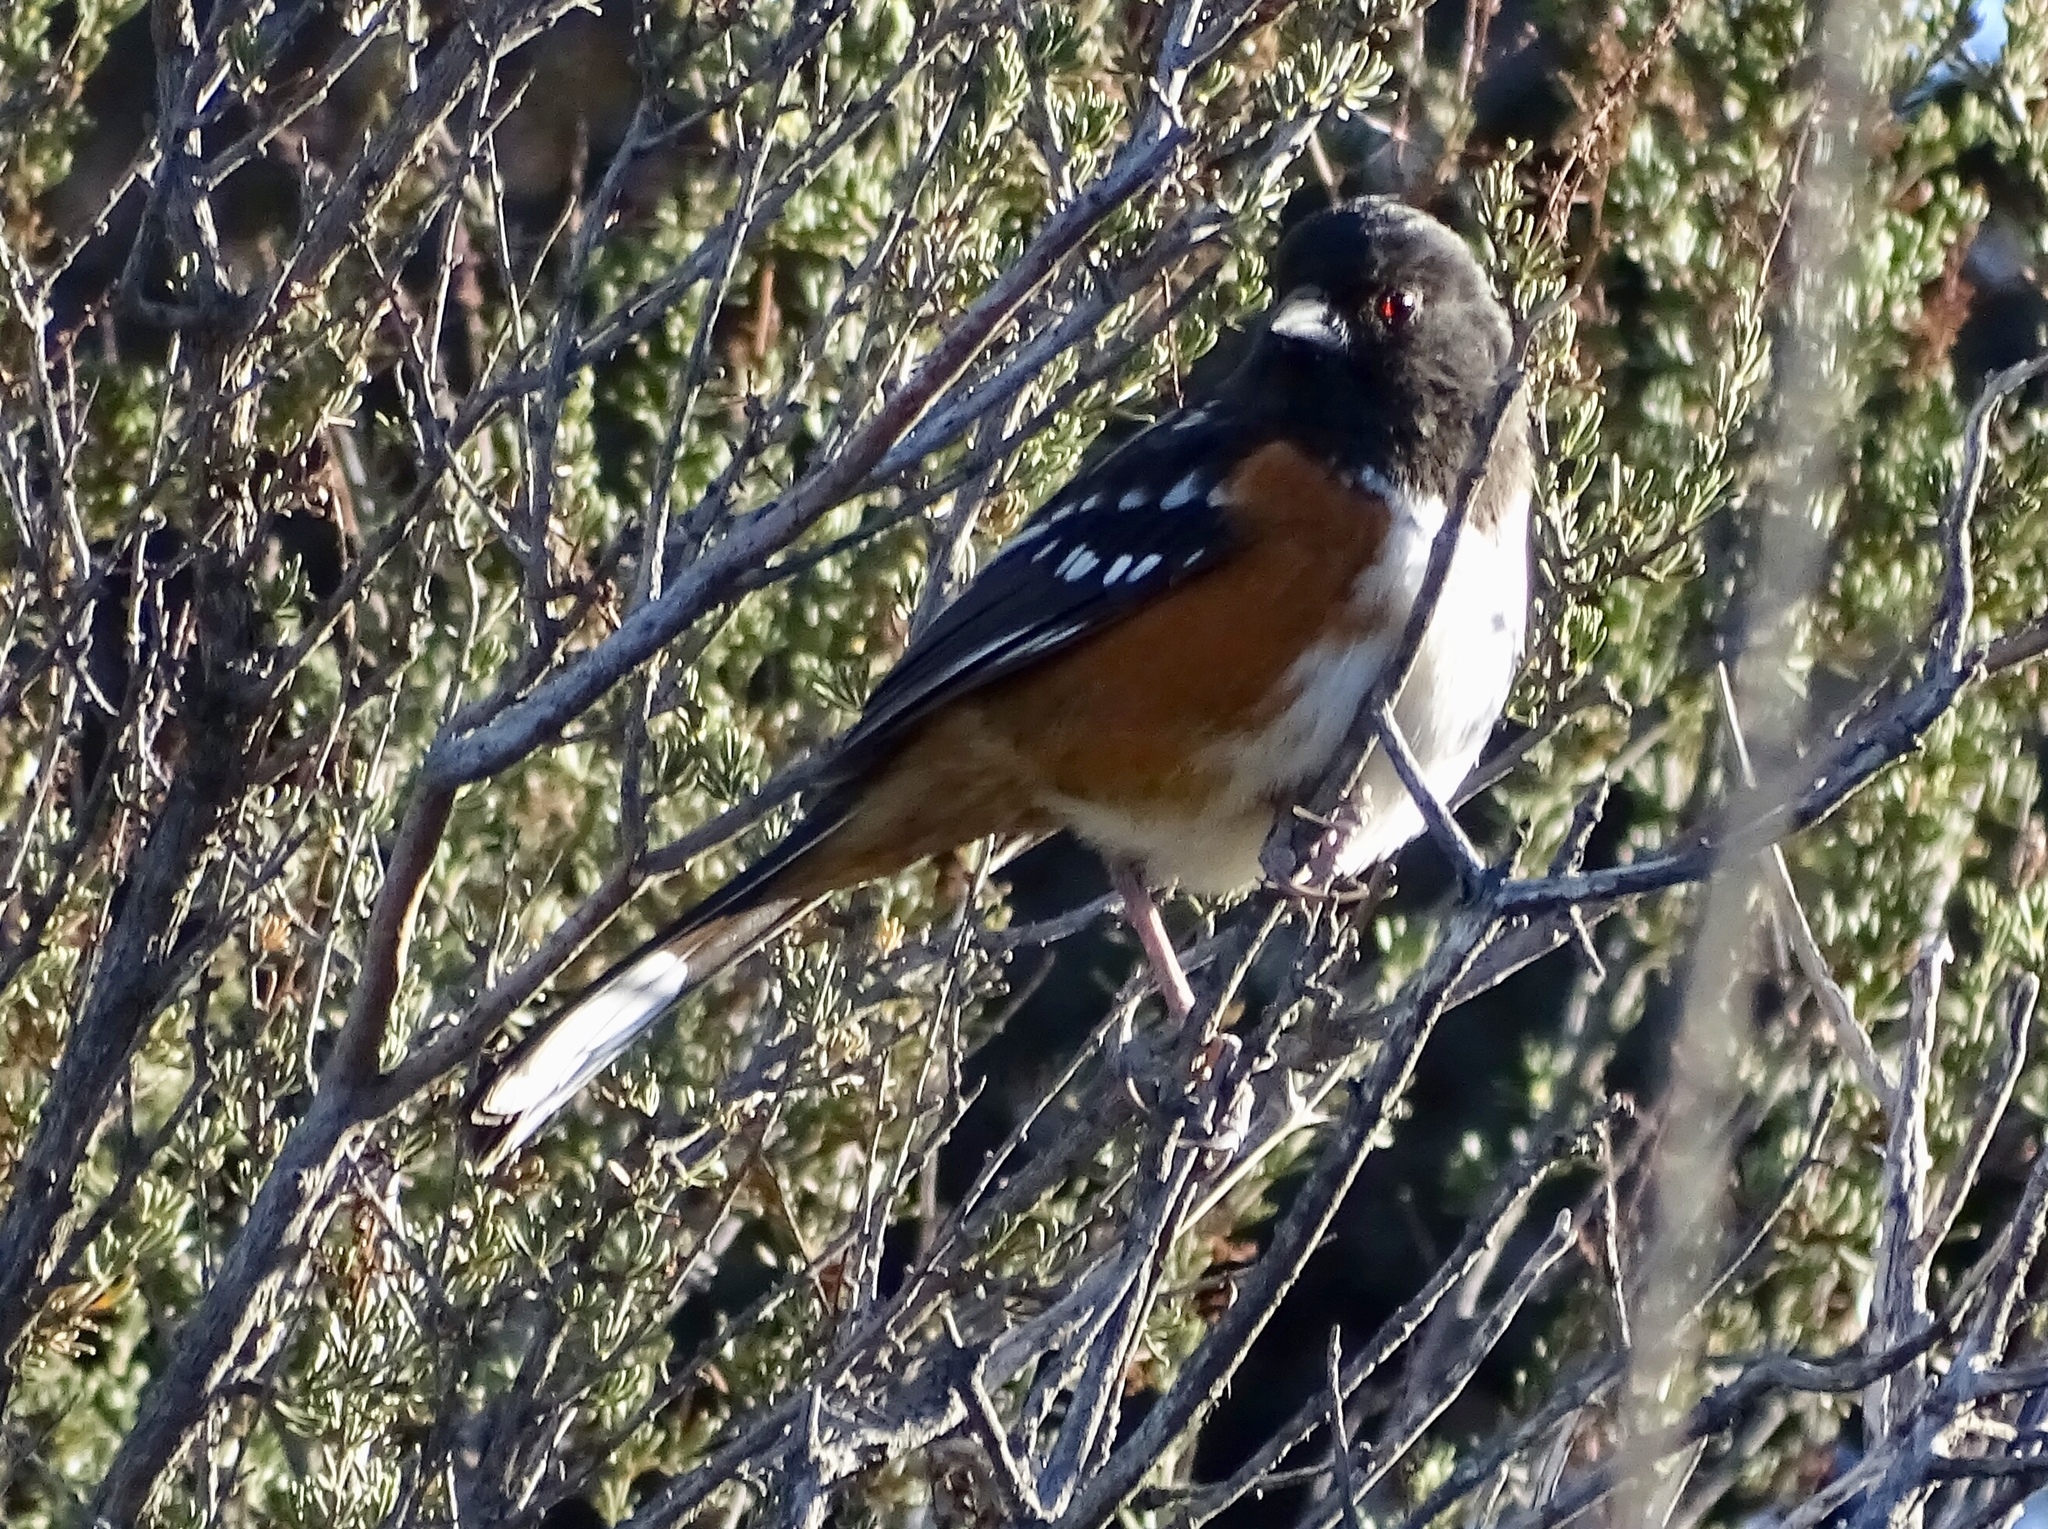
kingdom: Animalia
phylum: Chordata
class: Aves
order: Passeriformes
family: Passerellidae
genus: Pipilo
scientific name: Pipilo maculatus
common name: Spotted towhee
